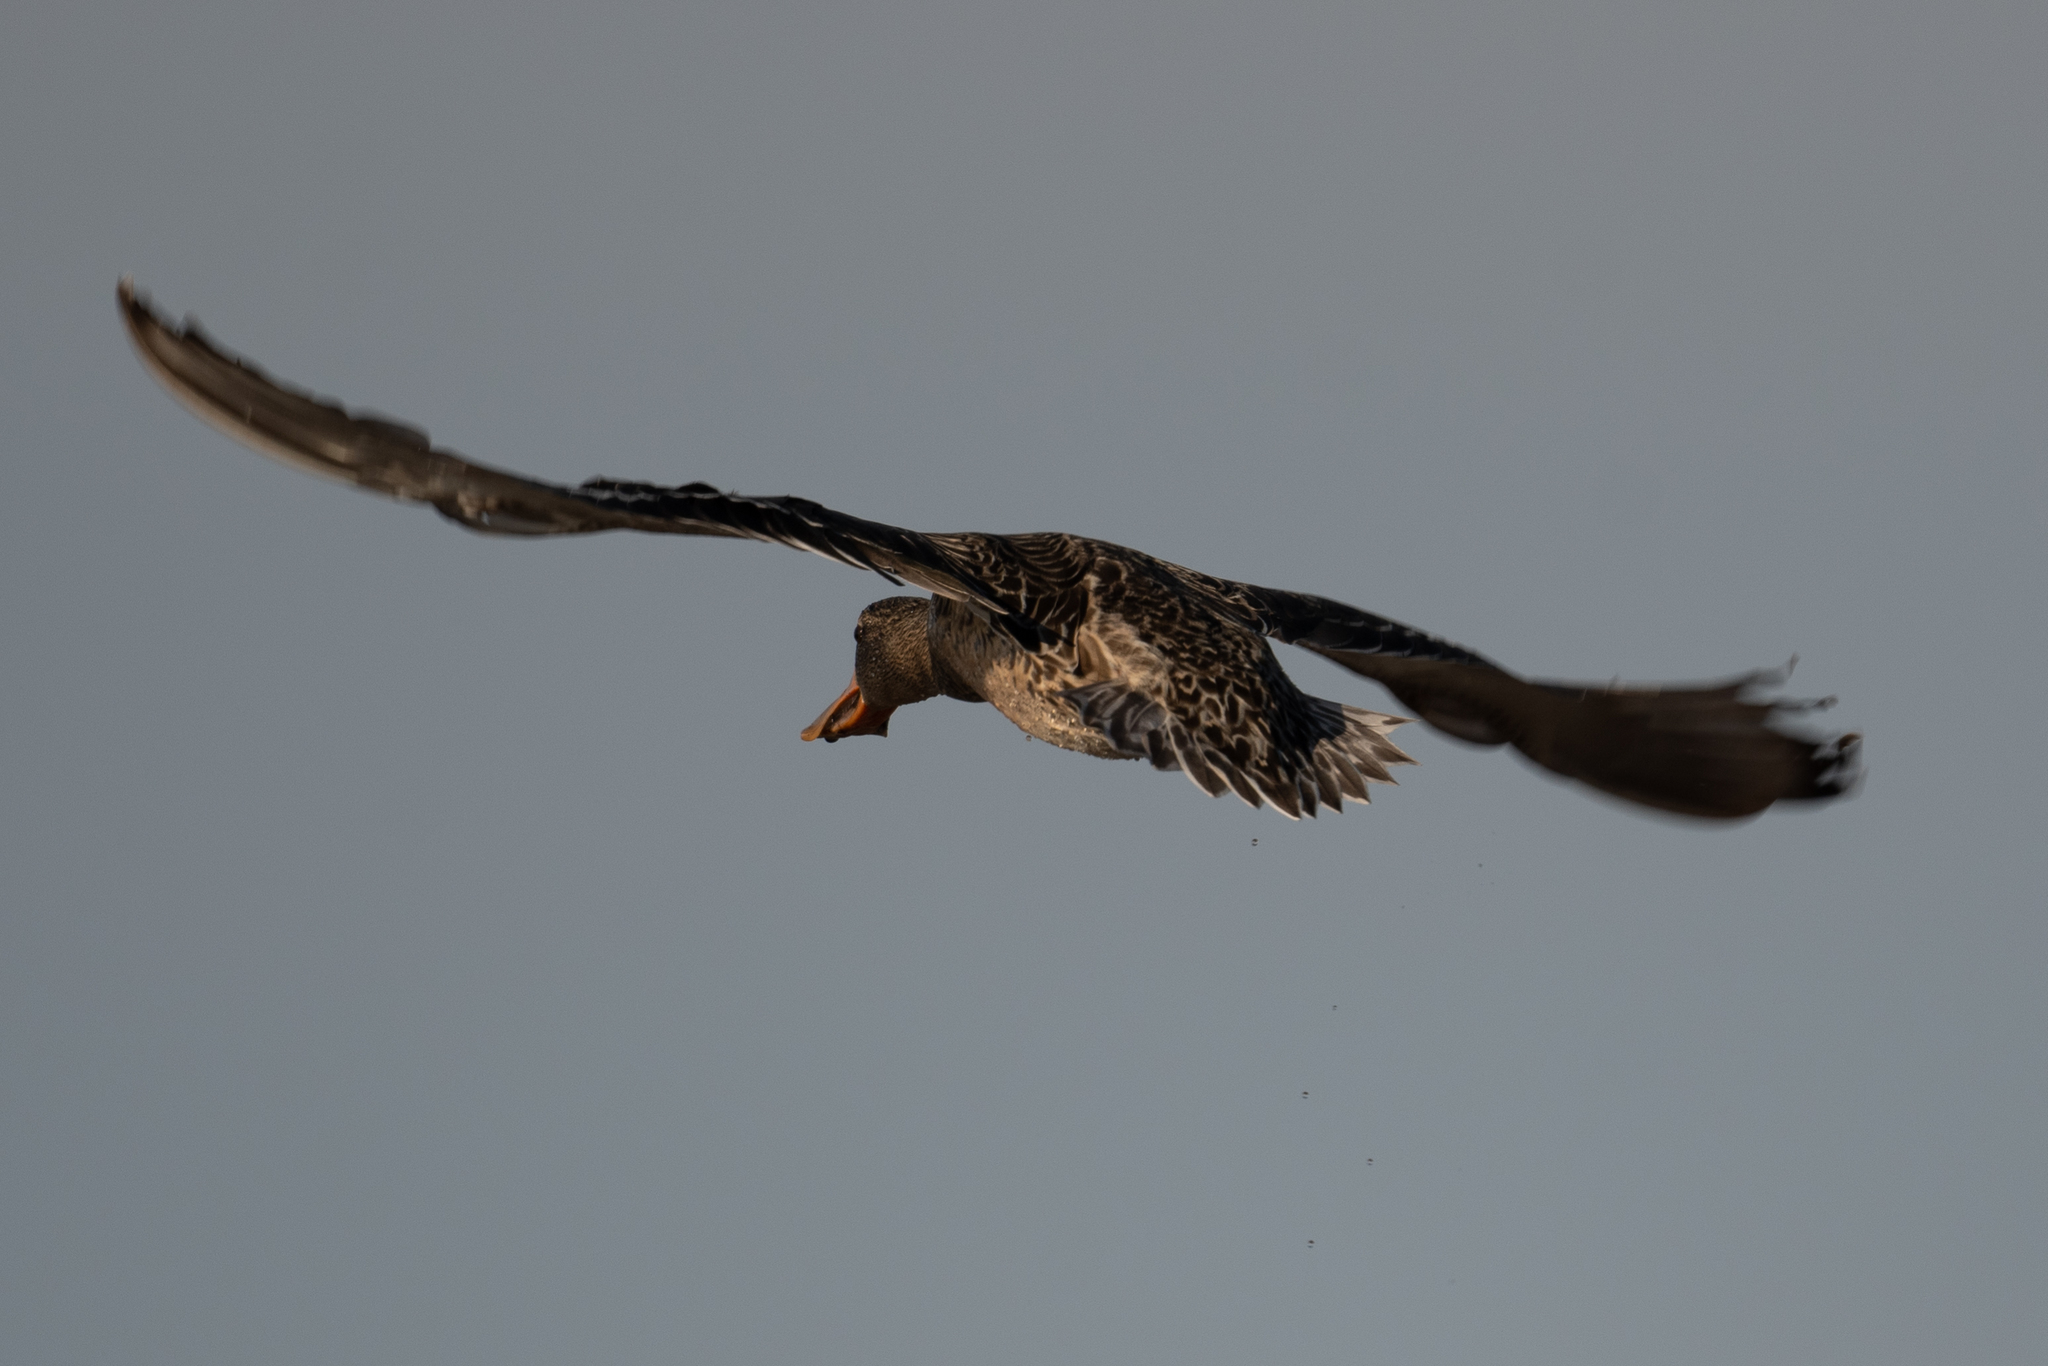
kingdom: Animalia
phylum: Chordata
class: Aves
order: Anseriformes
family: Anatidae
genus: Spatula
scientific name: Spatula clypeata
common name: Northern shoveler
